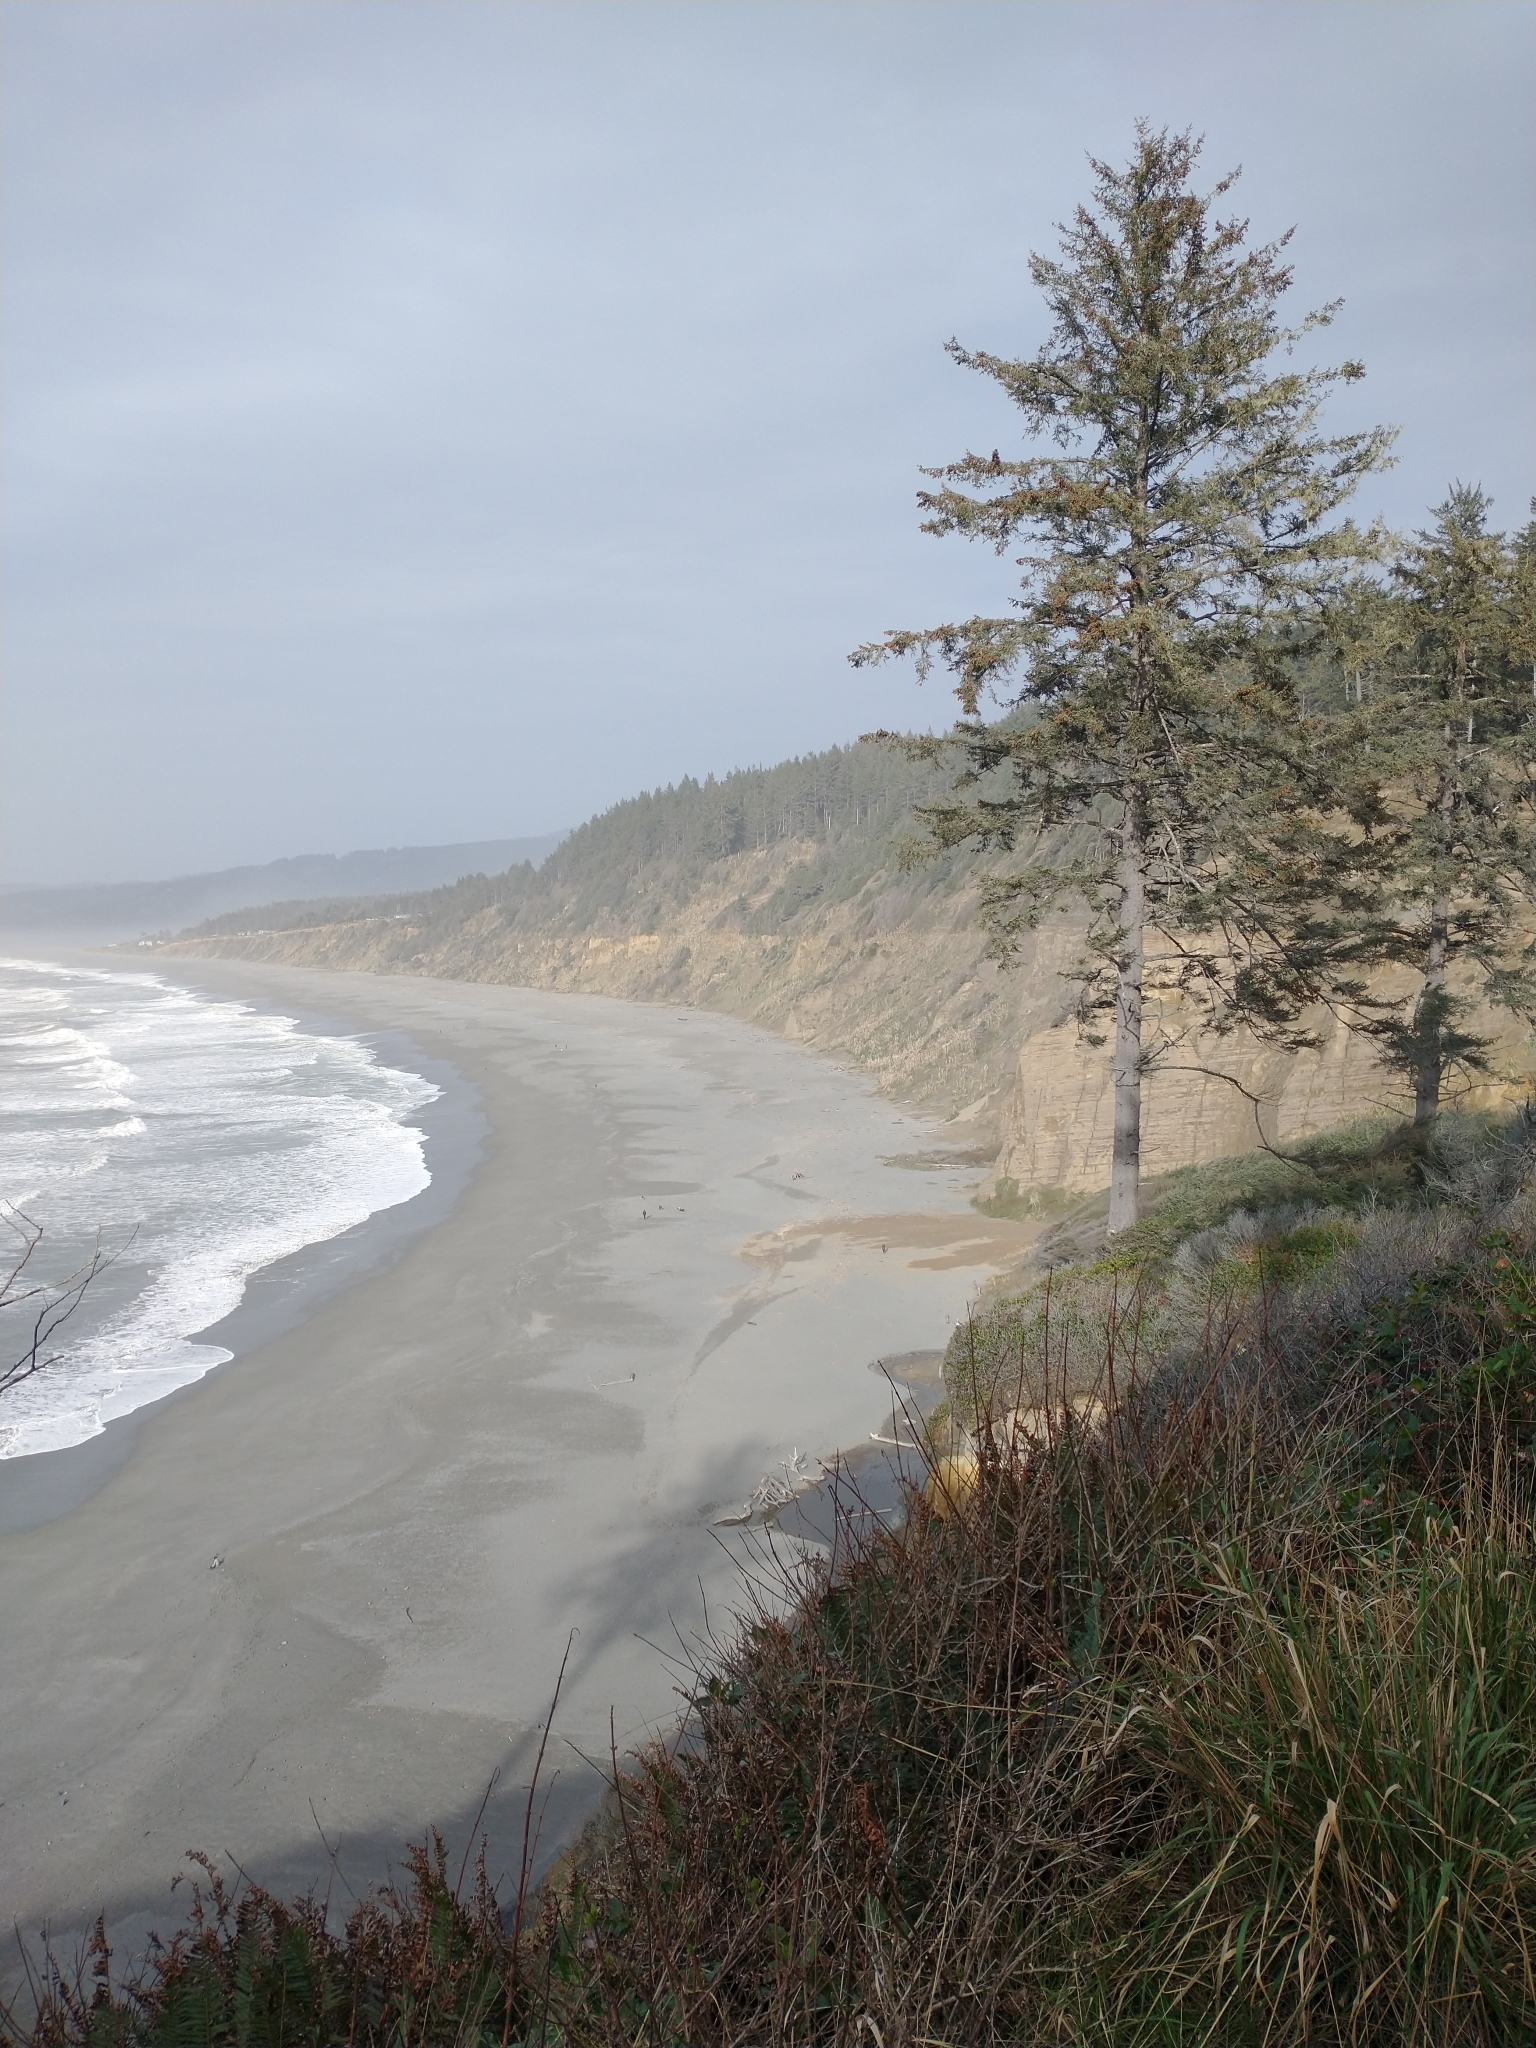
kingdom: Plantae
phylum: Tracheophyta
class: Pinopsida
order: Pinales
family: Pinaceae
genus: Picea
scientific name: Picea sitchensis
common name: Sitka spruce
